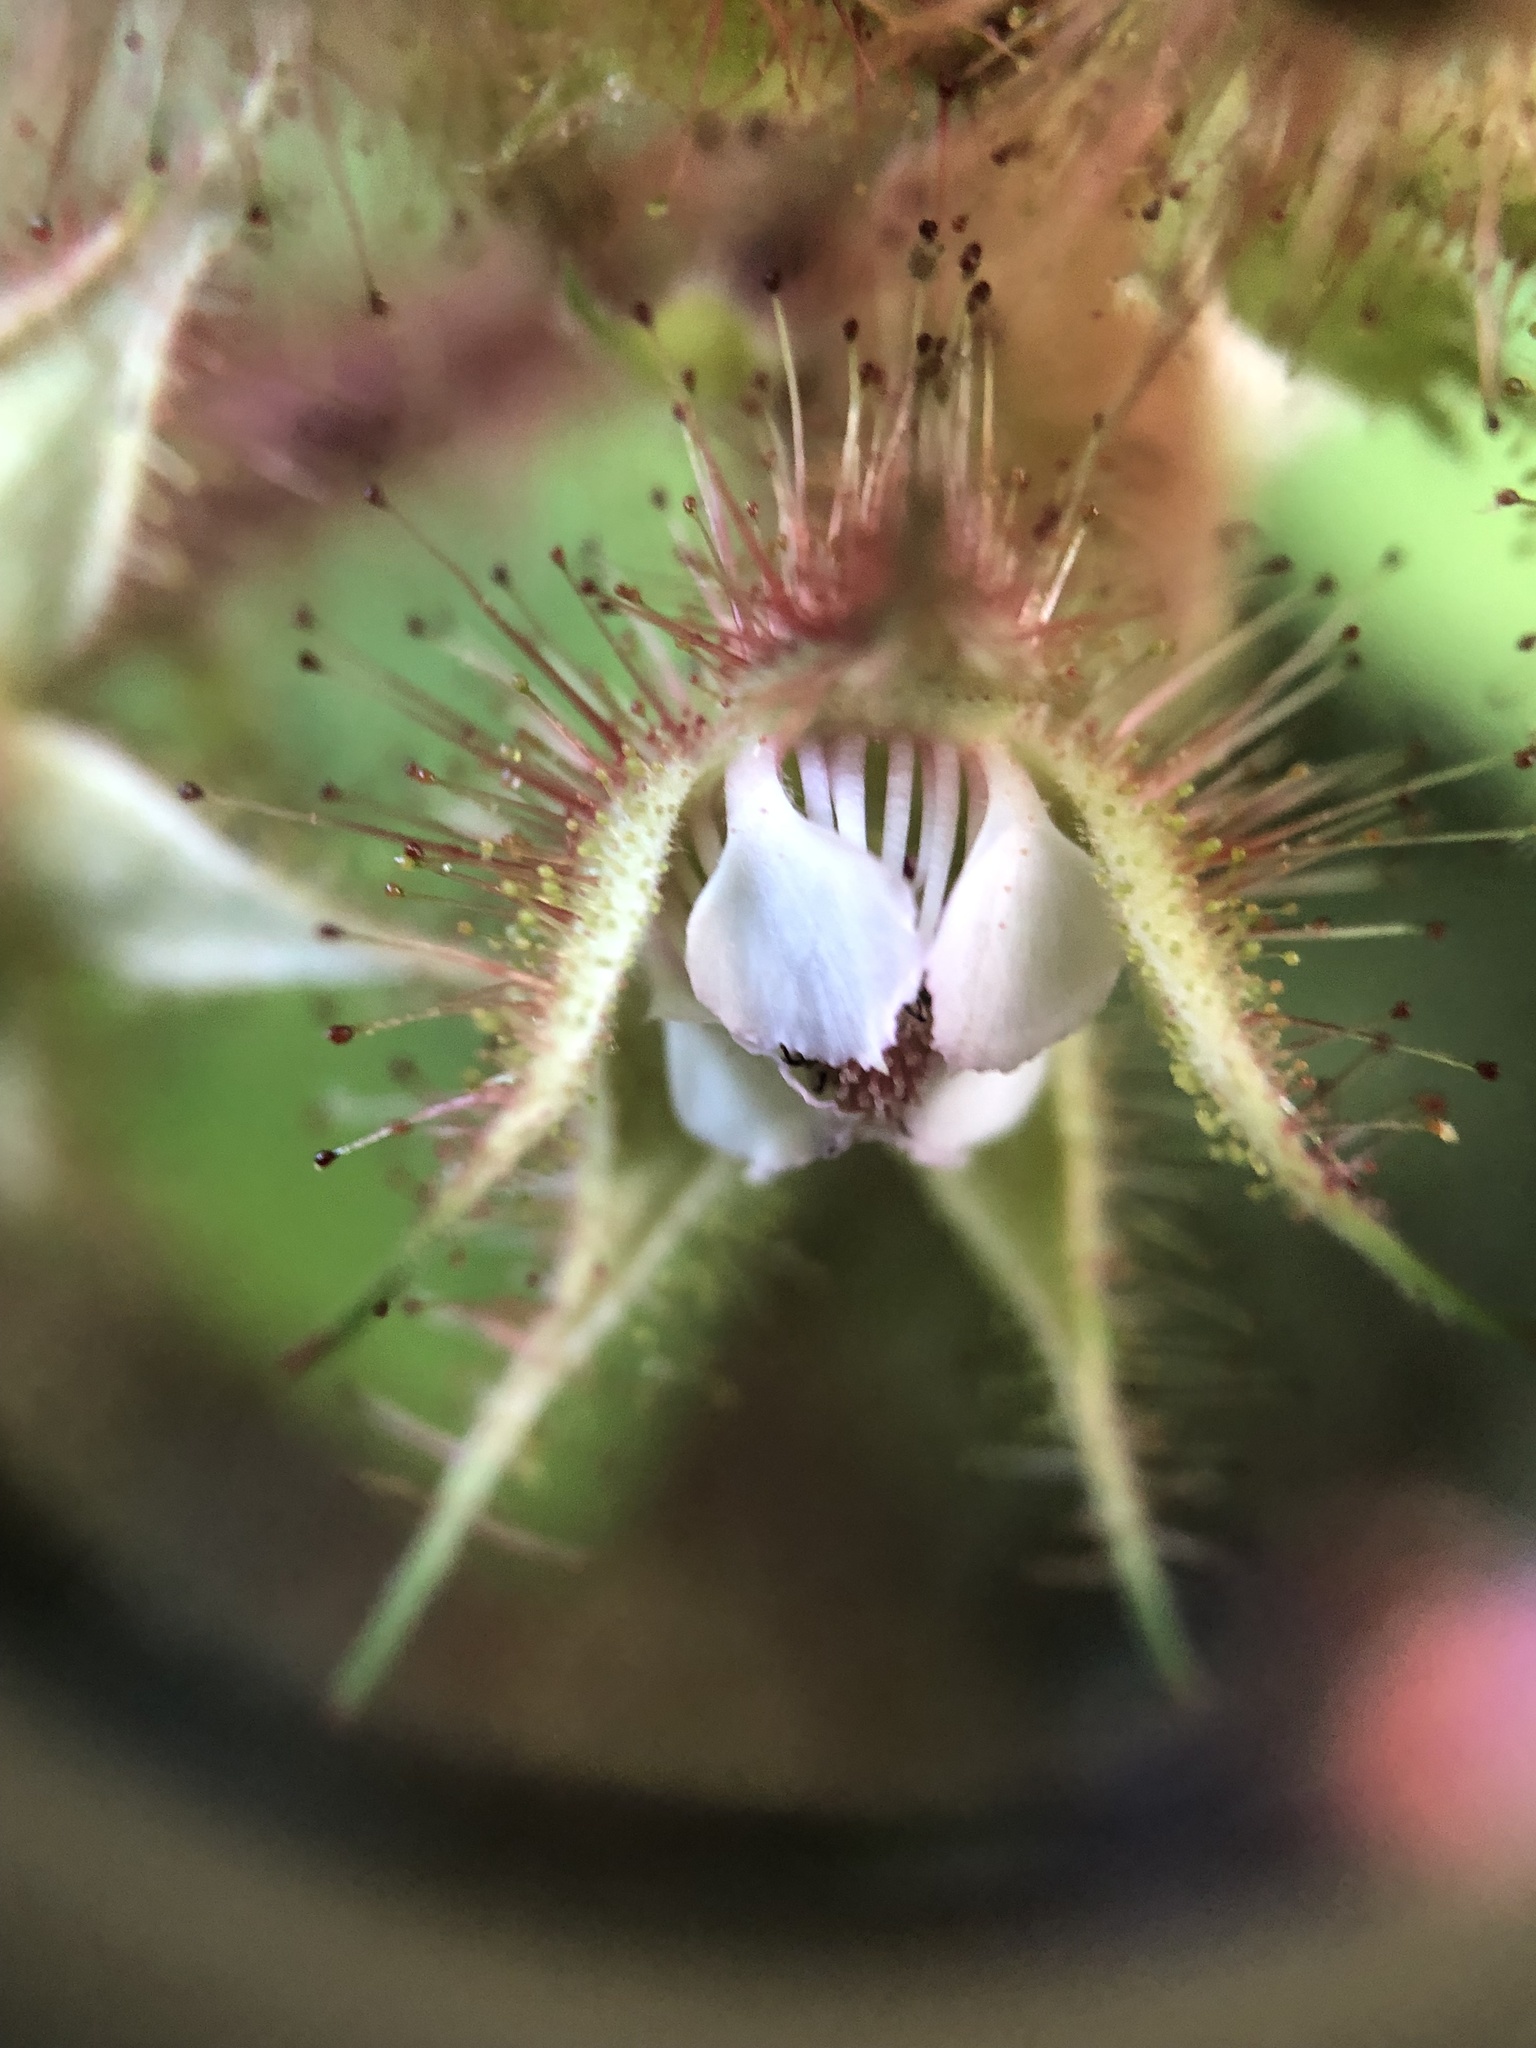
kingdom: Plantae
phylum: Tracheophyta
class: Magnoliopsida
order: Rosales
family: Rosaceae
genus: Rubus
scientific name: Rubus phoenicolasius
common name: Japanese wineberry
